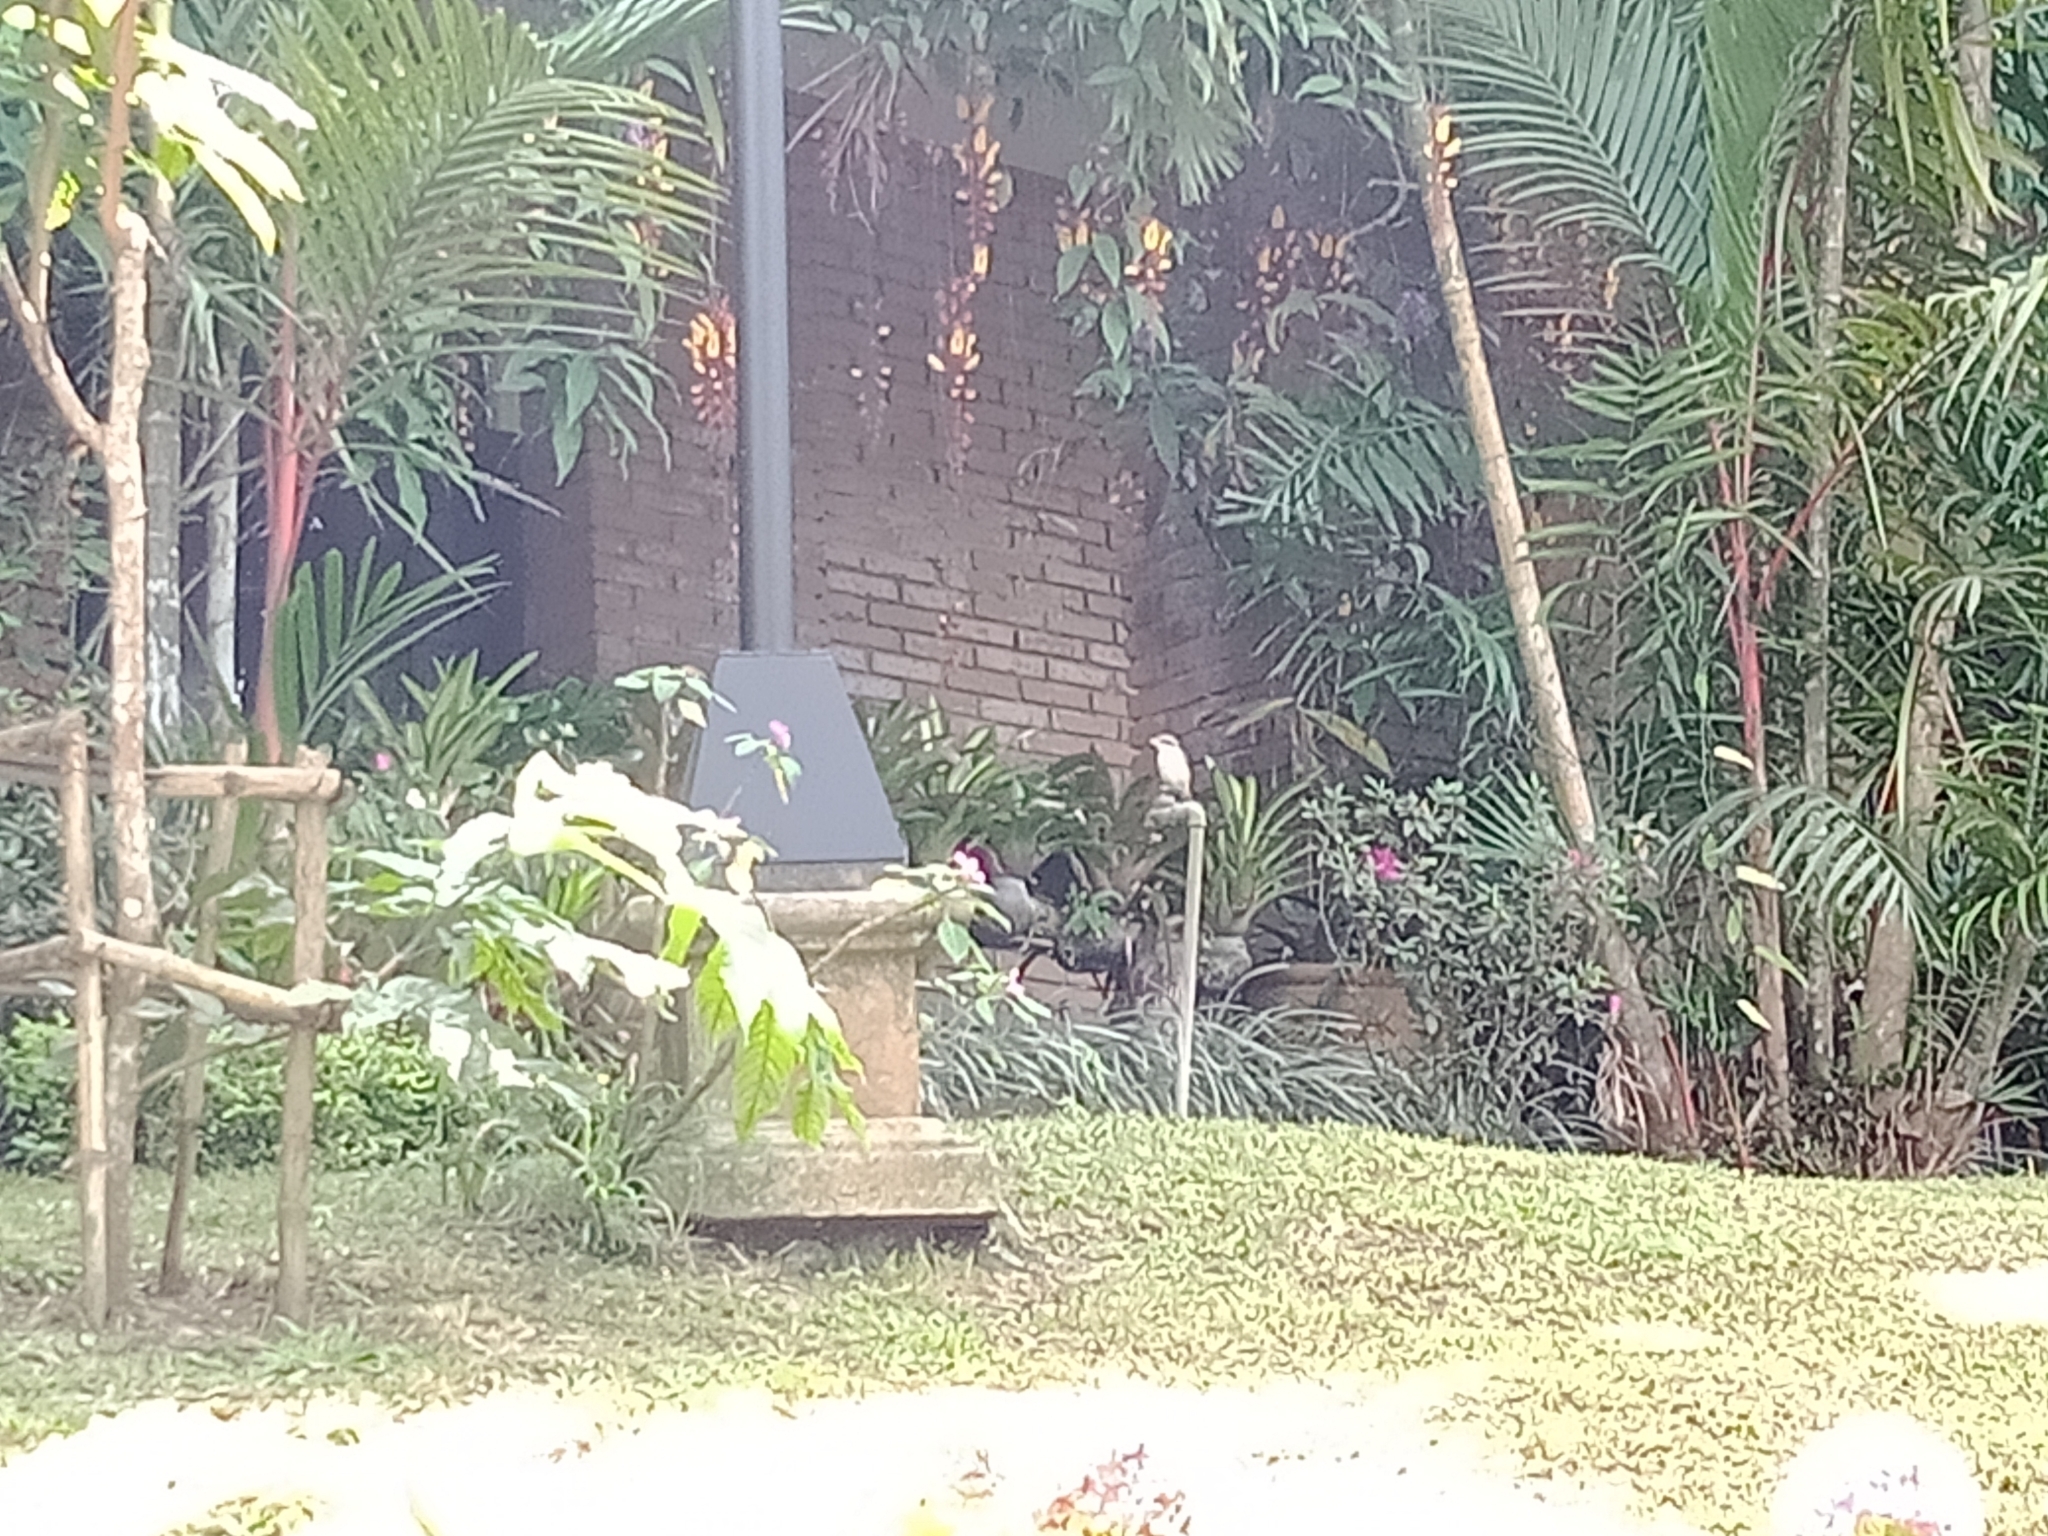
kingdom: Animalia
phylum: Chordata
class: Aves
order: Passeriformes
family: Laniidae
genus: Lanius
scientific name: Lanius cristatus
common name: Brown shrike
